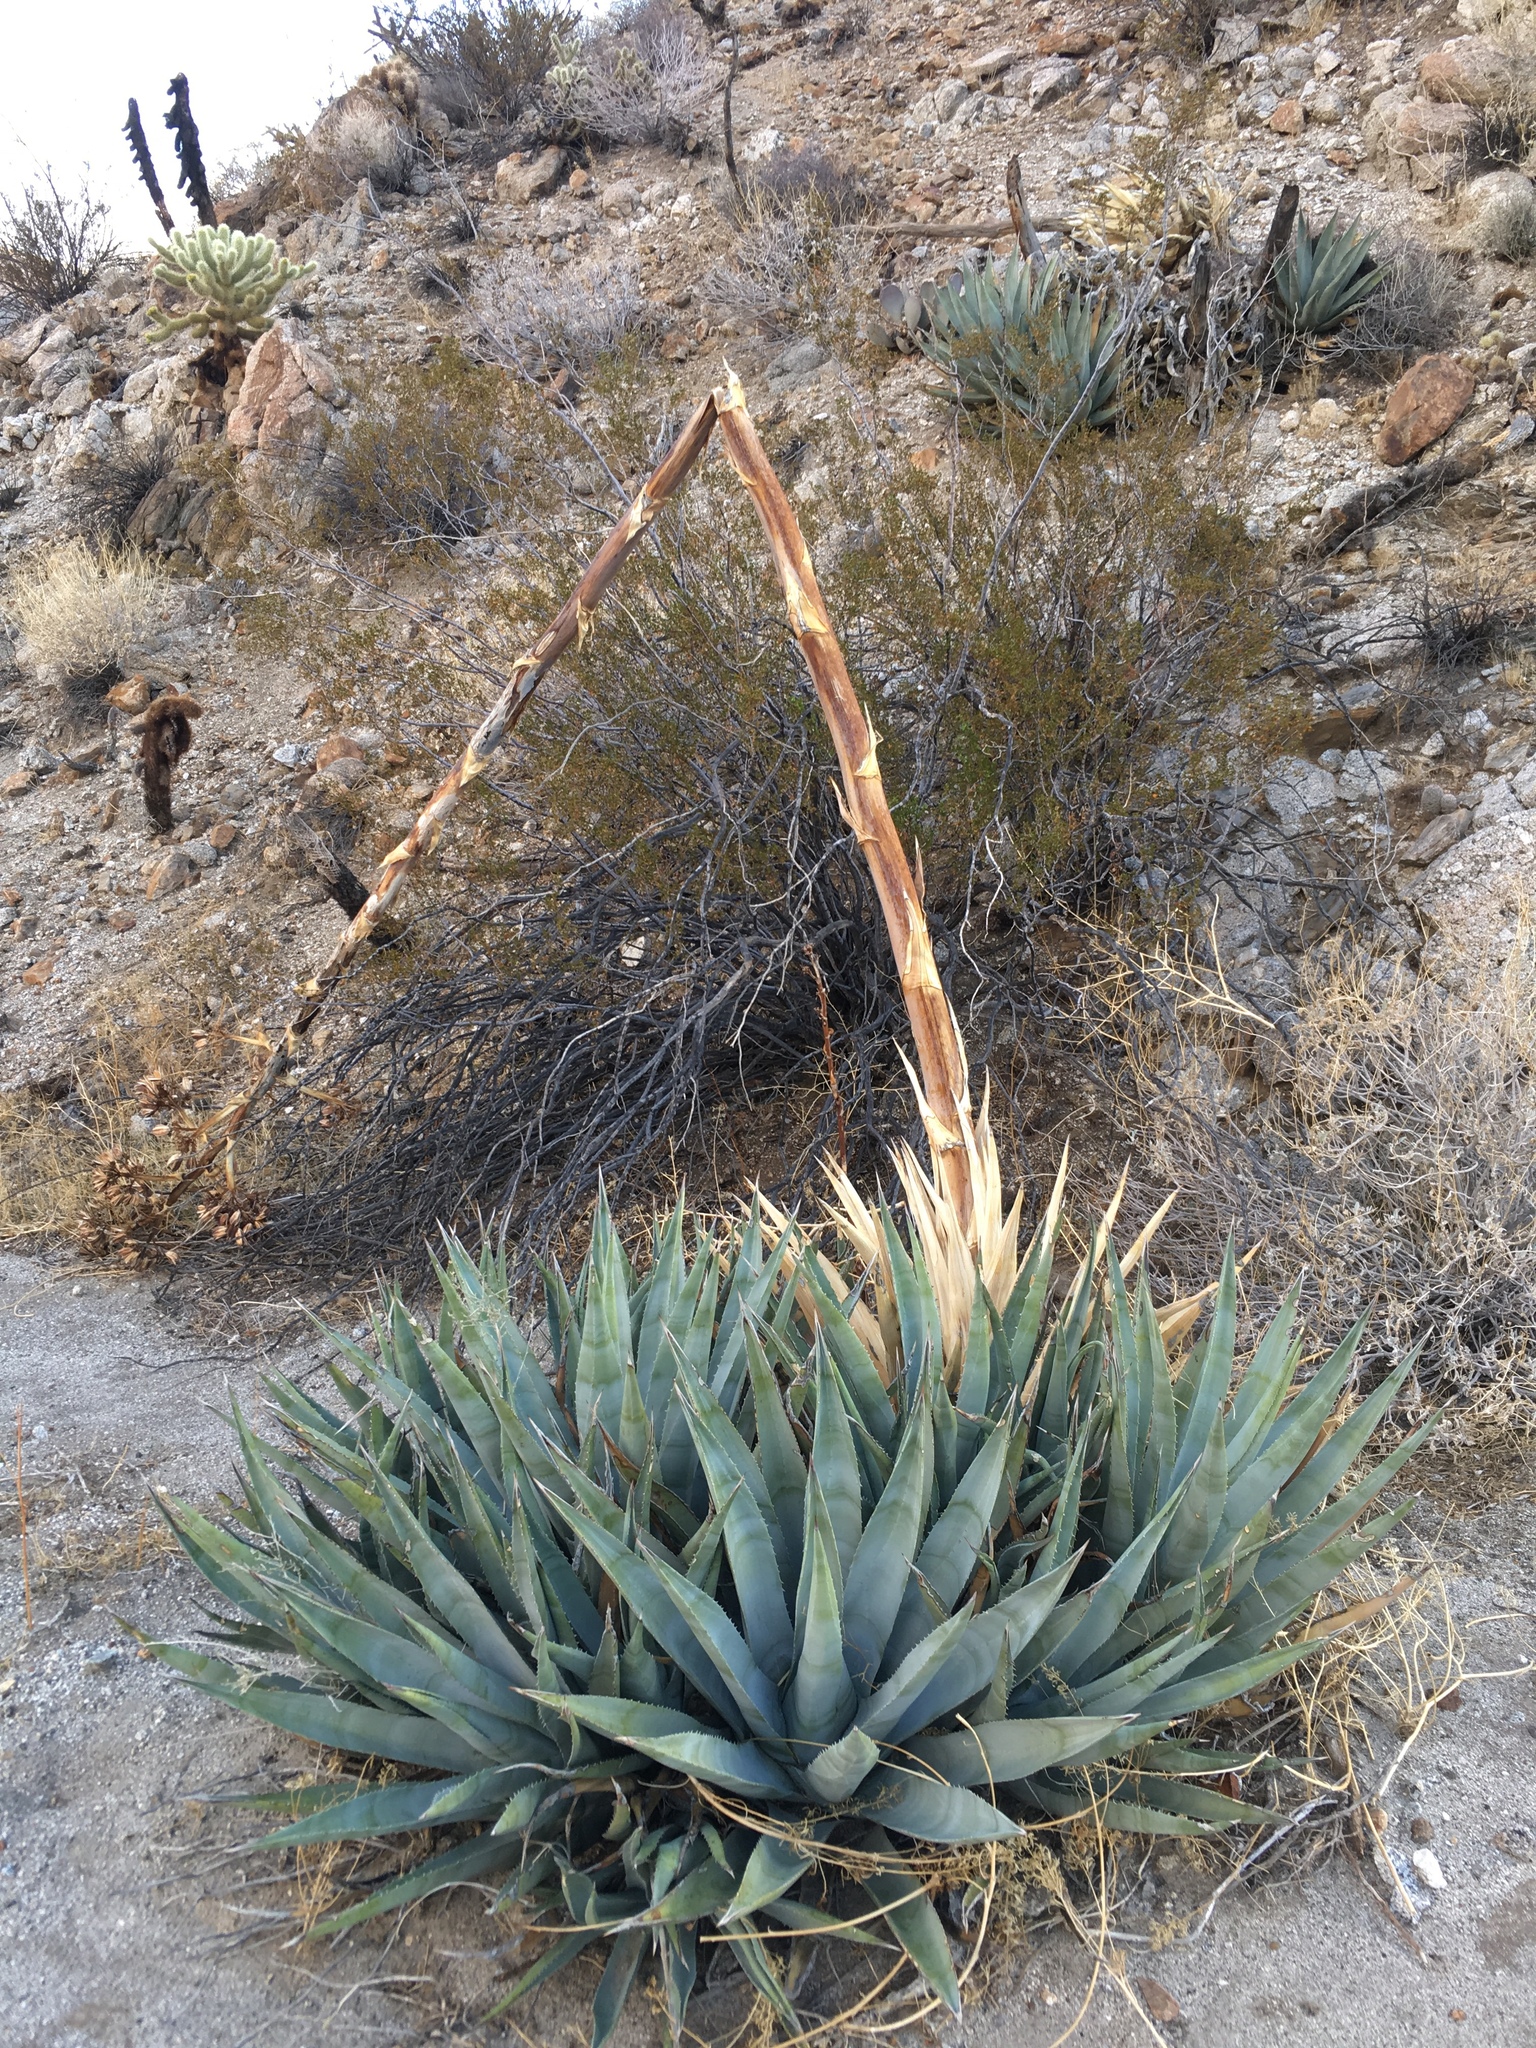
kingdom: Plantae
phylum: Tracheophyta
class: Liliopsida
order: Asparagales
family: Asparagaceae
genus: Agave
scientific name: Agave deserti
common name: Desert agave
